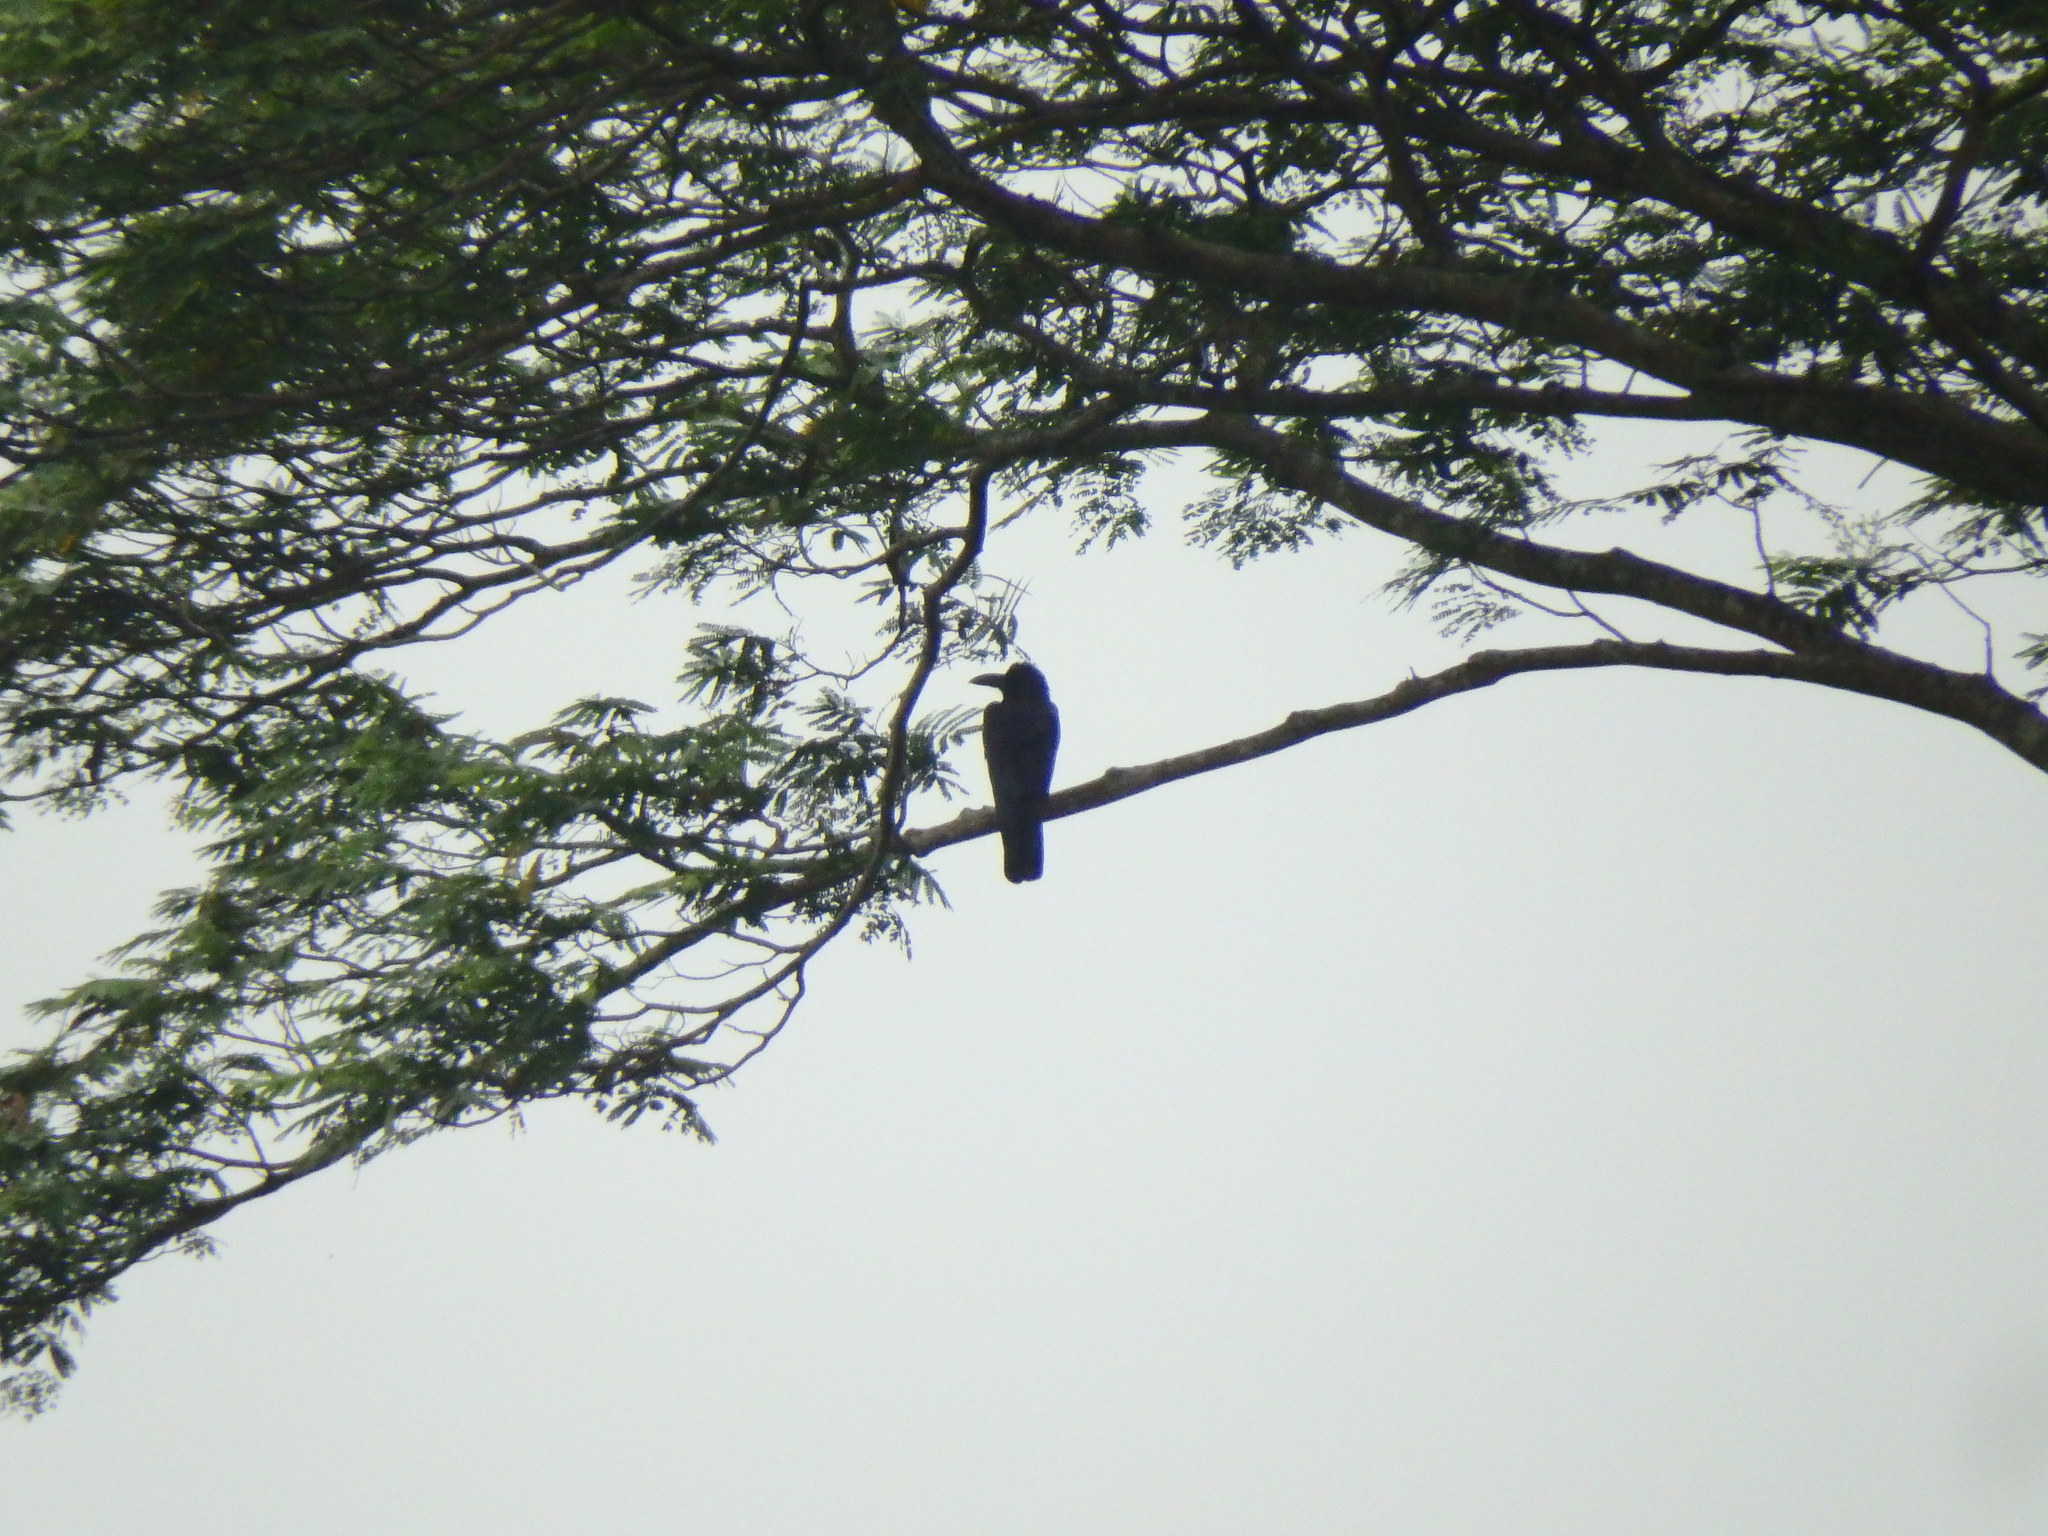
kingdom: Animalia
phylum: Chordata
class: Aves
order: Passeriformes
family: Corvidae
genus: Corvus
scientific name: Corvus macrorhynchos
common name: Large-billed crow
